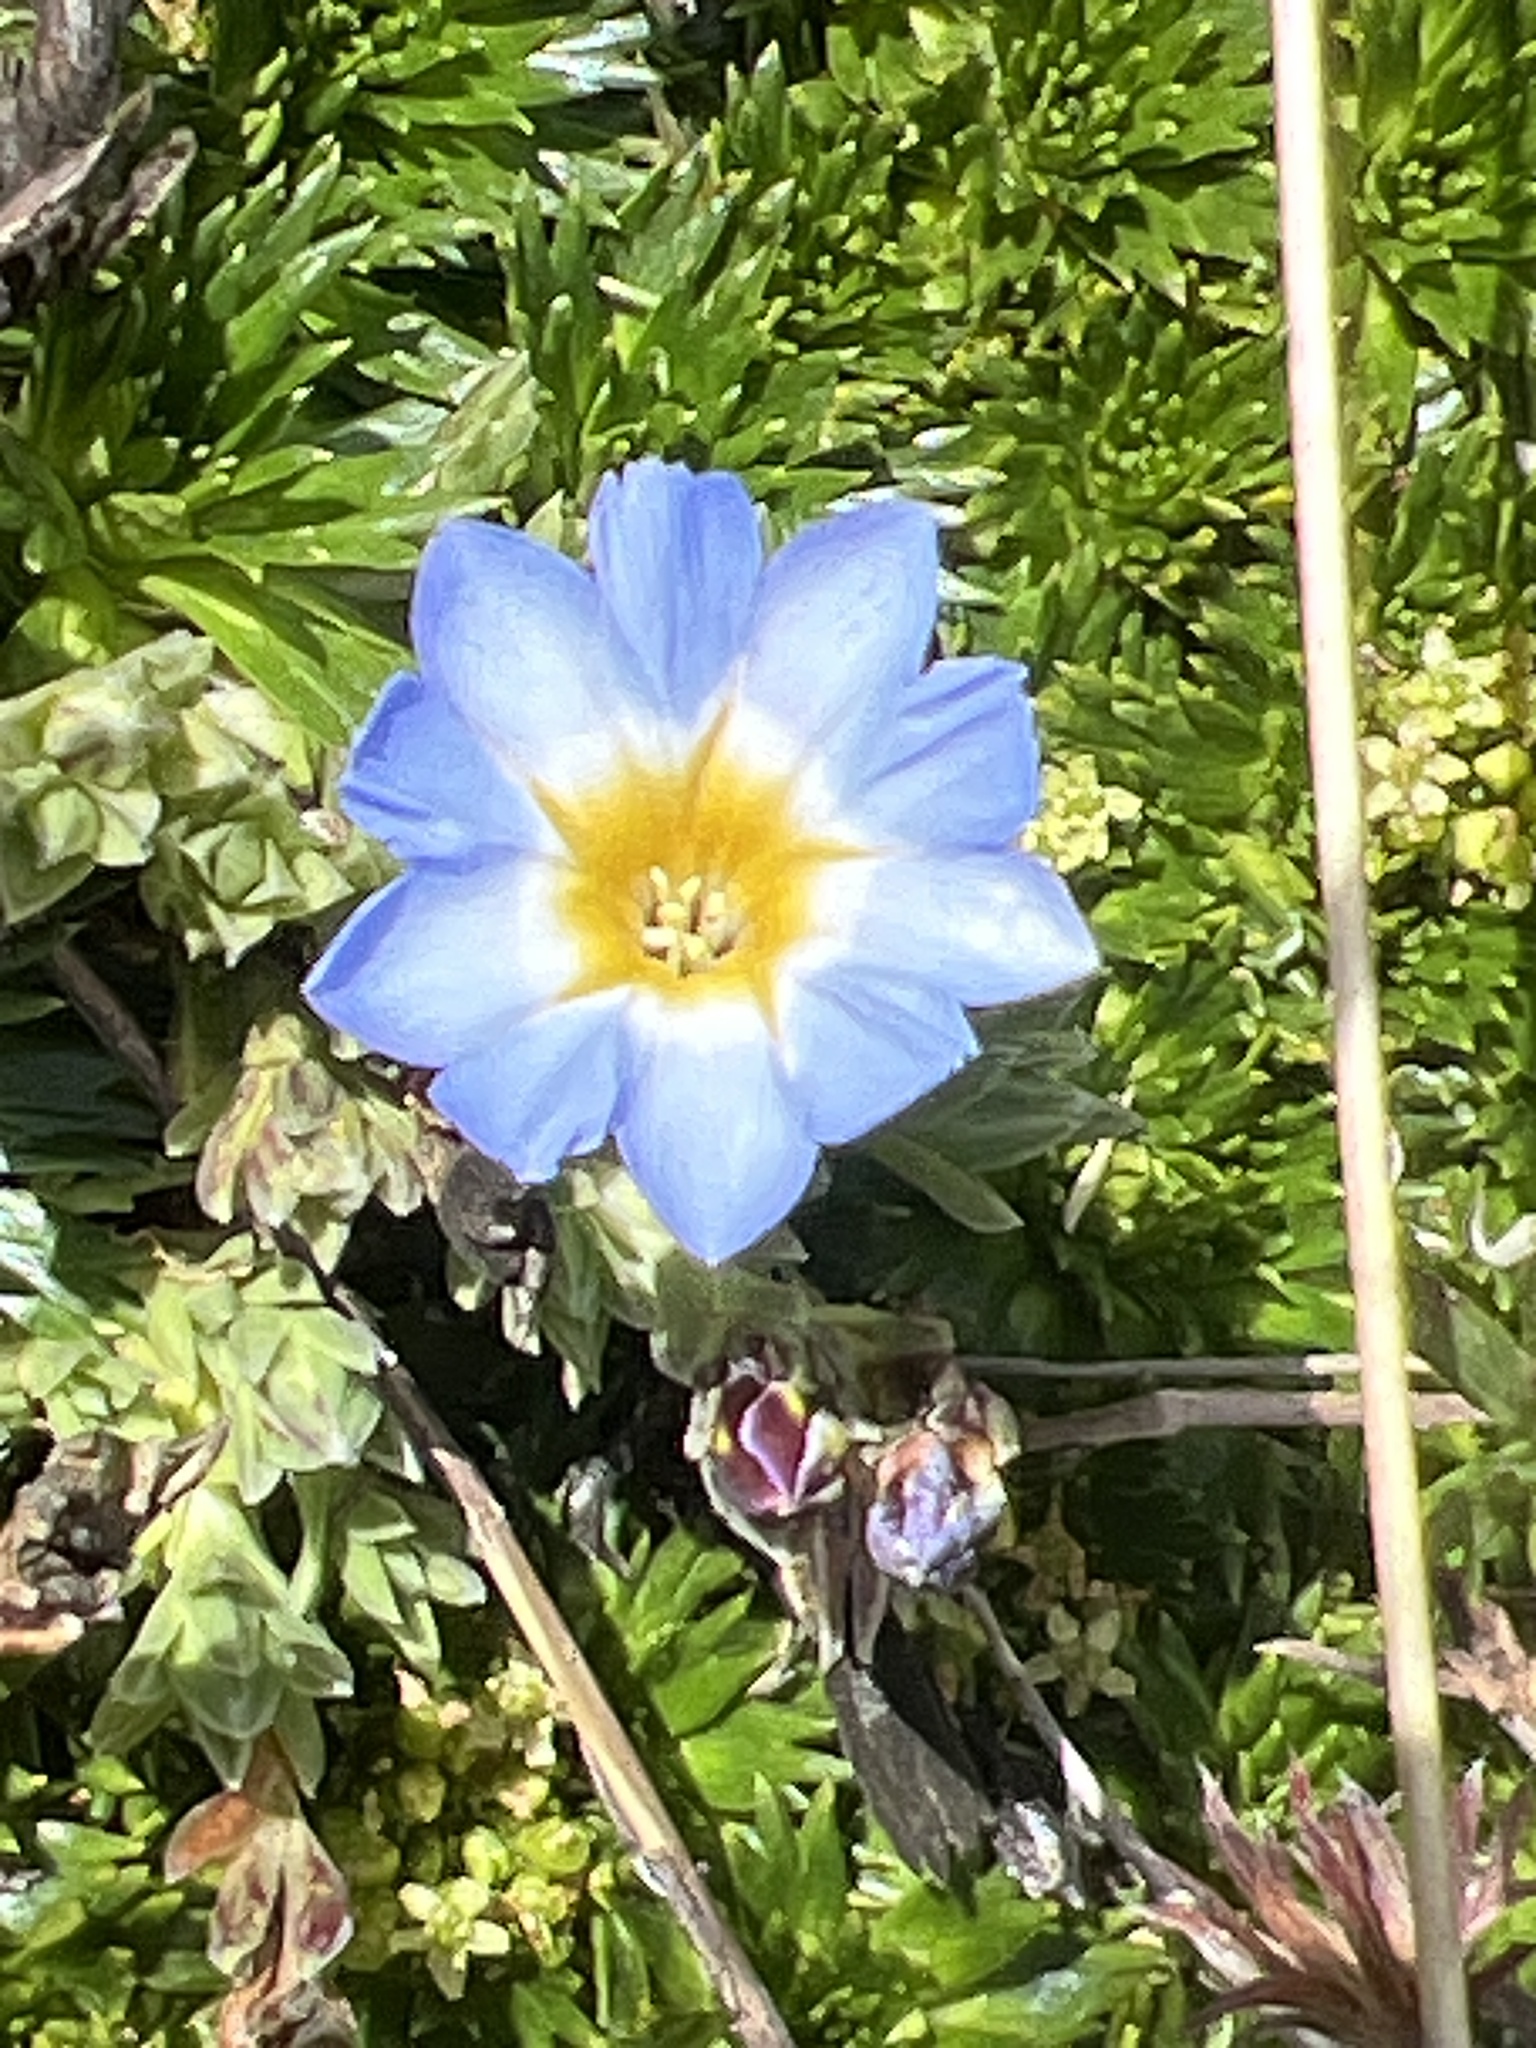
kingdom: Plantae
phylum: Tracheophyta
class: Magnoliopsida
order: Gentianales
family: Gentianaceae
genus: Gentiana
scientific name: Gentiana sedifolia
